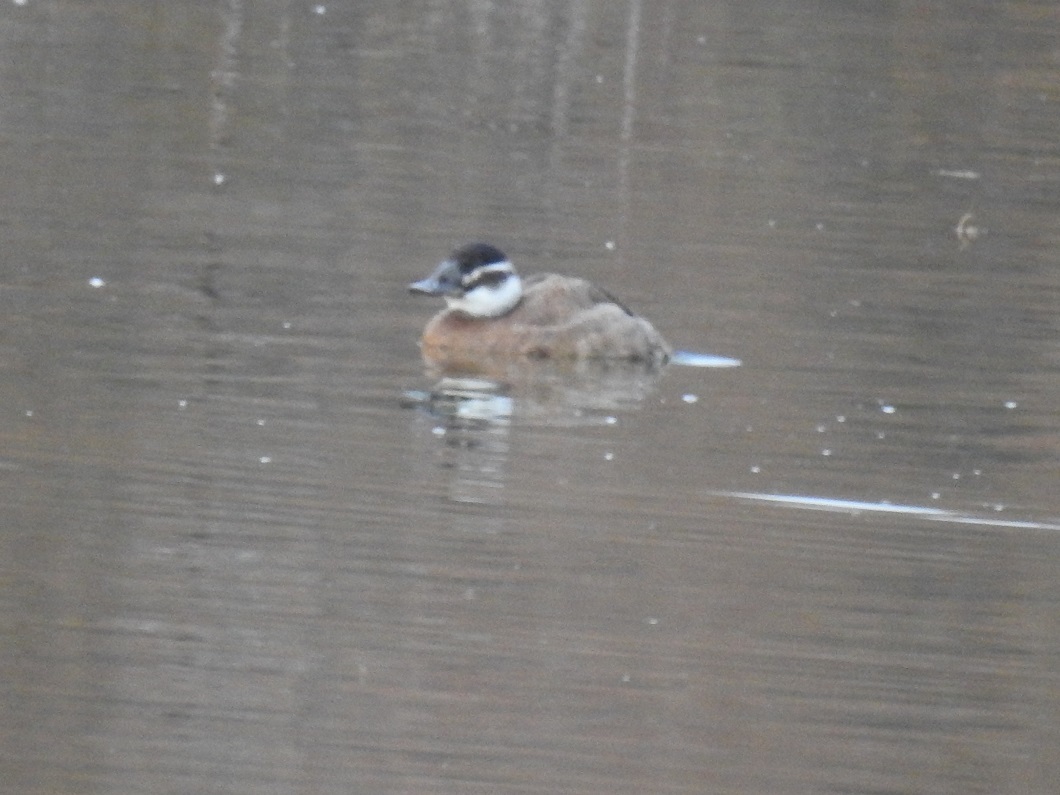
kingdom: Animalia
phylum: Chordata
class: Aves
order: Anseriformes
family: Anatidae
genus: Oxyura
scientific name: Oxyura leucocephala
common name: White-headed duck
